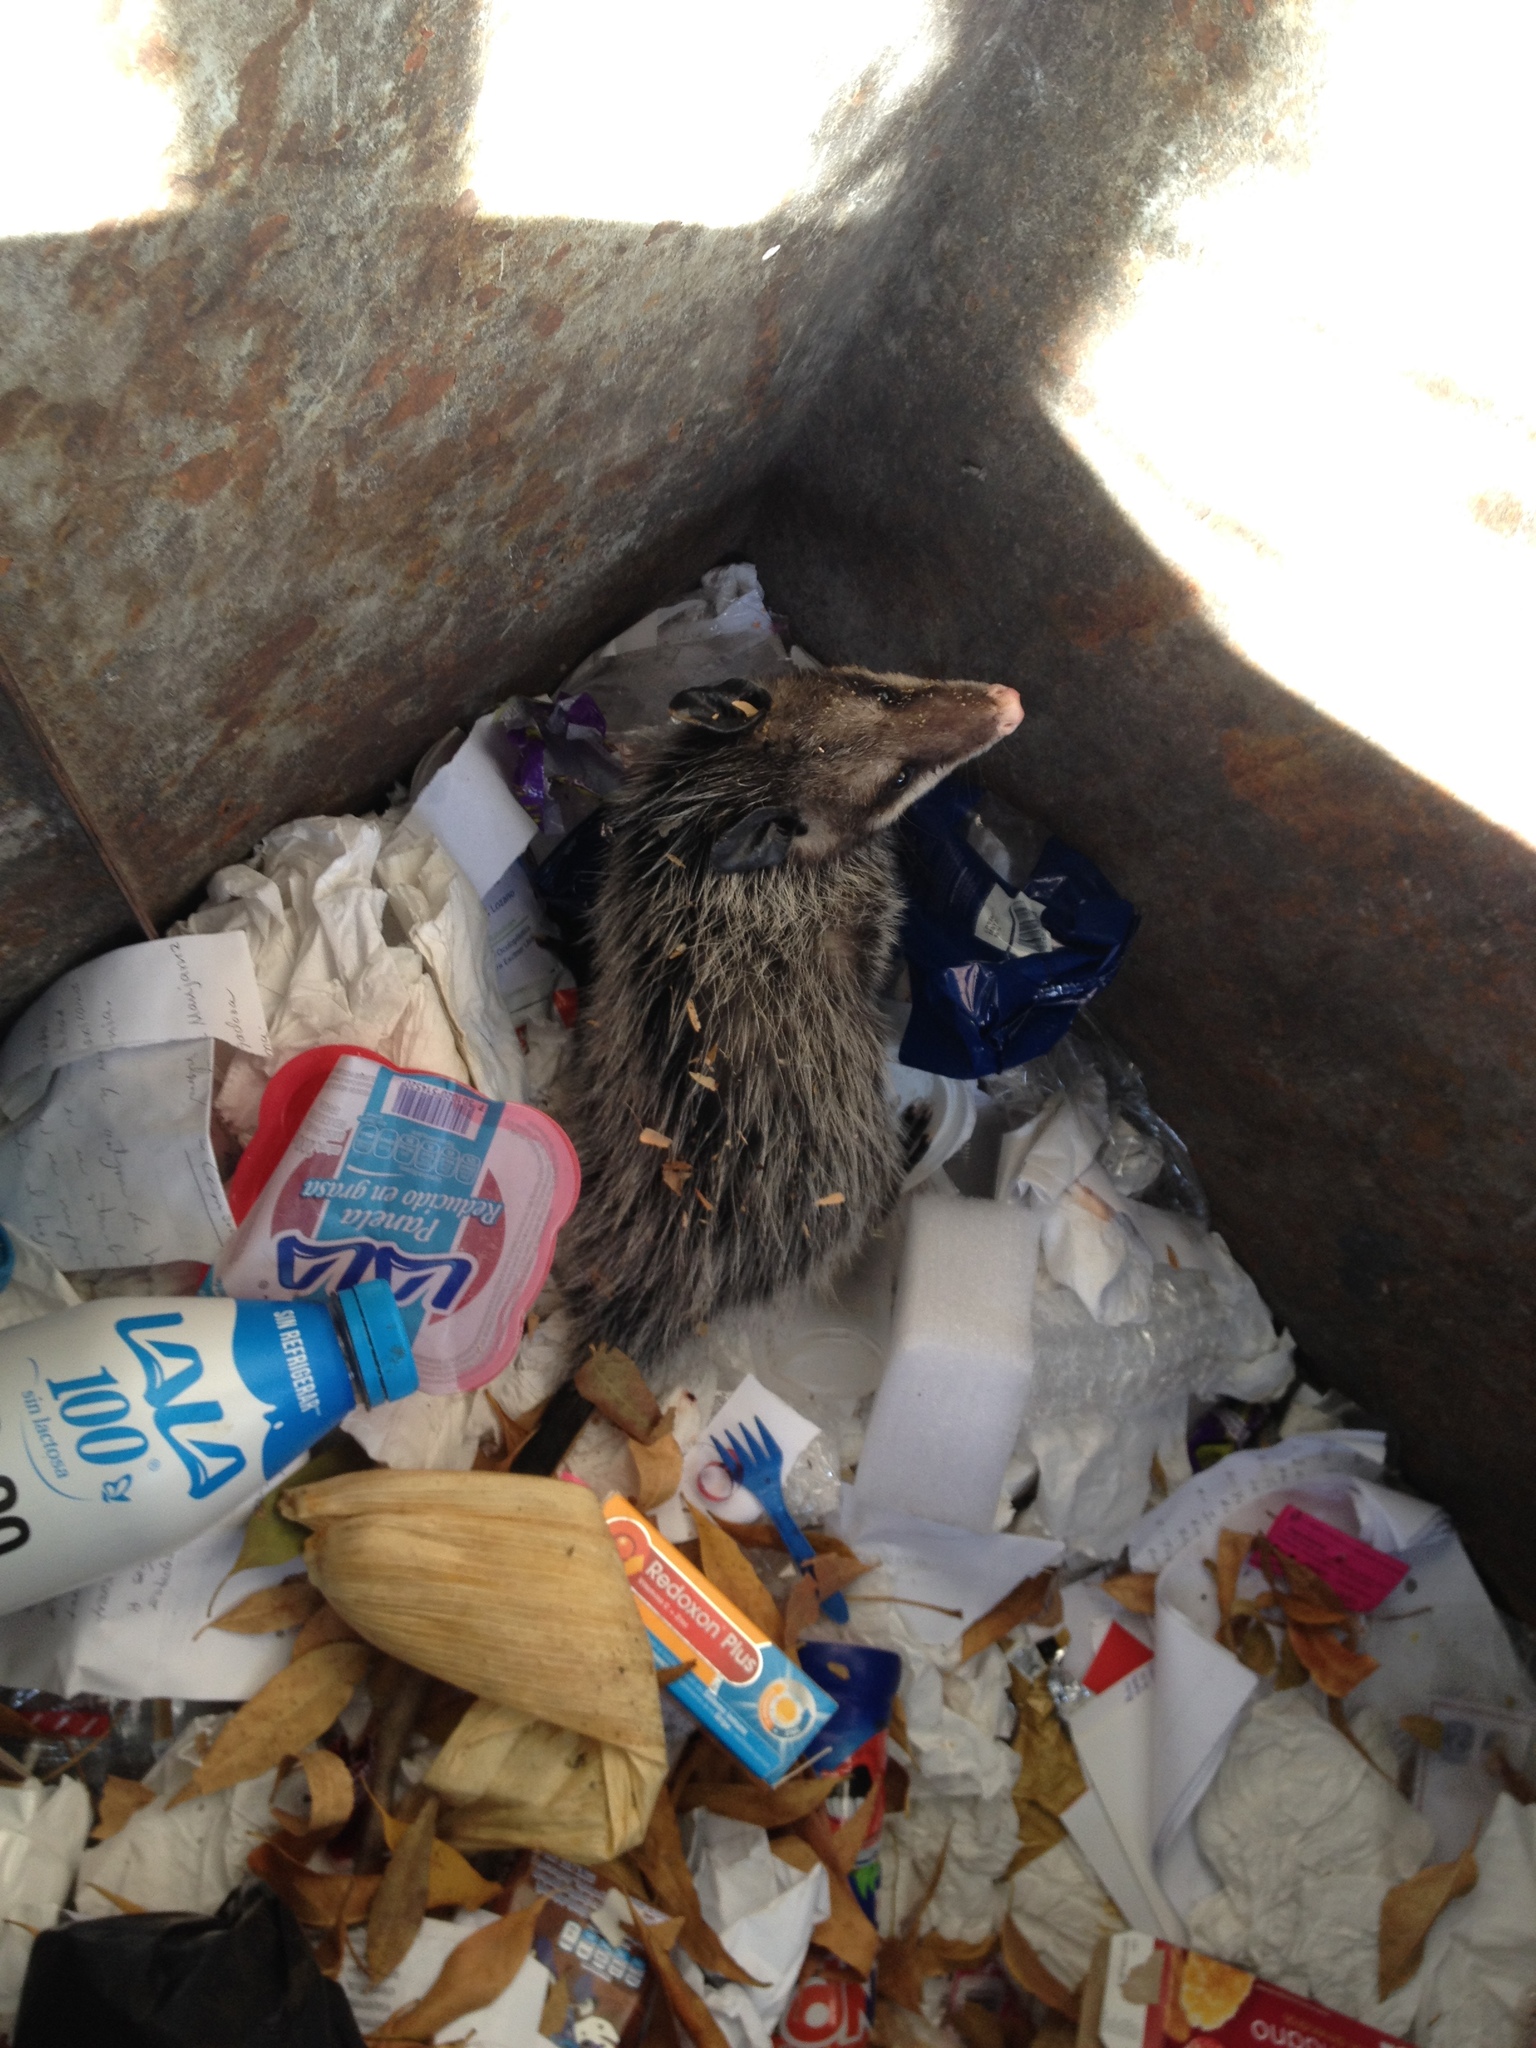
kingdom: Animalia
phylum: Chordata
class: Mammalia
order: Didelphimorphia
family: Didelphidae
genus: Didelphis
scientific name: Didelphis virginiana
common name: Virginia opossum
